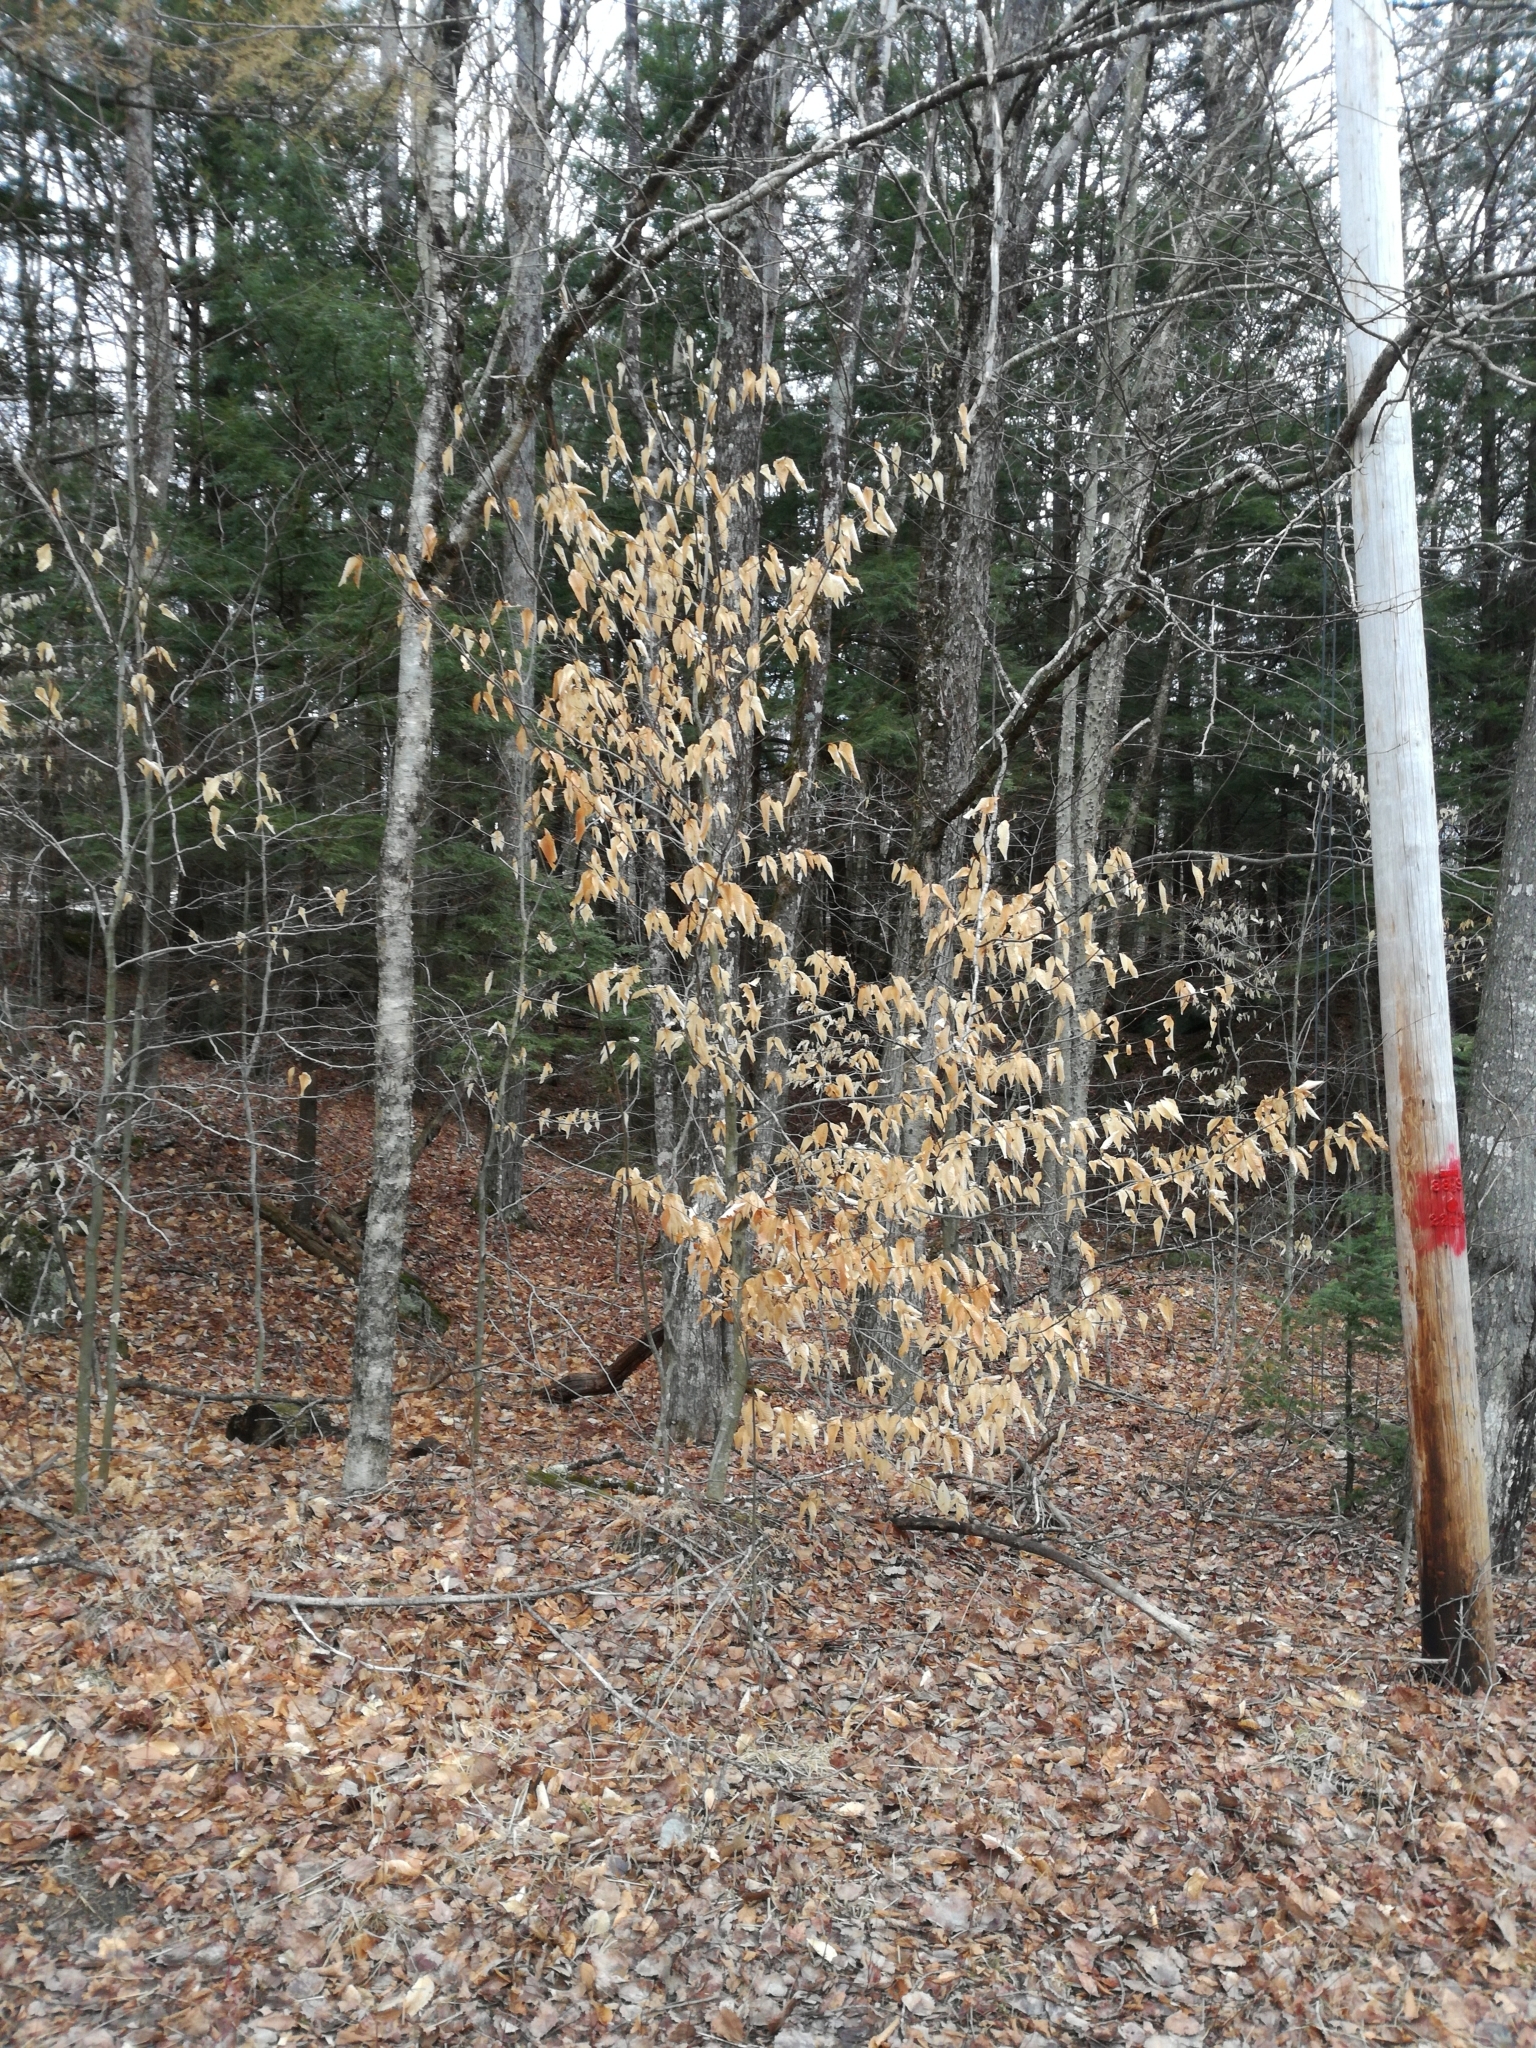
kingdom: Plantae
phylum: Tracheophyta
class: Magnoliopsida
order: Fagales
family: Fagaceae
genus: Fagus
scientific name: Fagus grandifolia
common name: American beech
